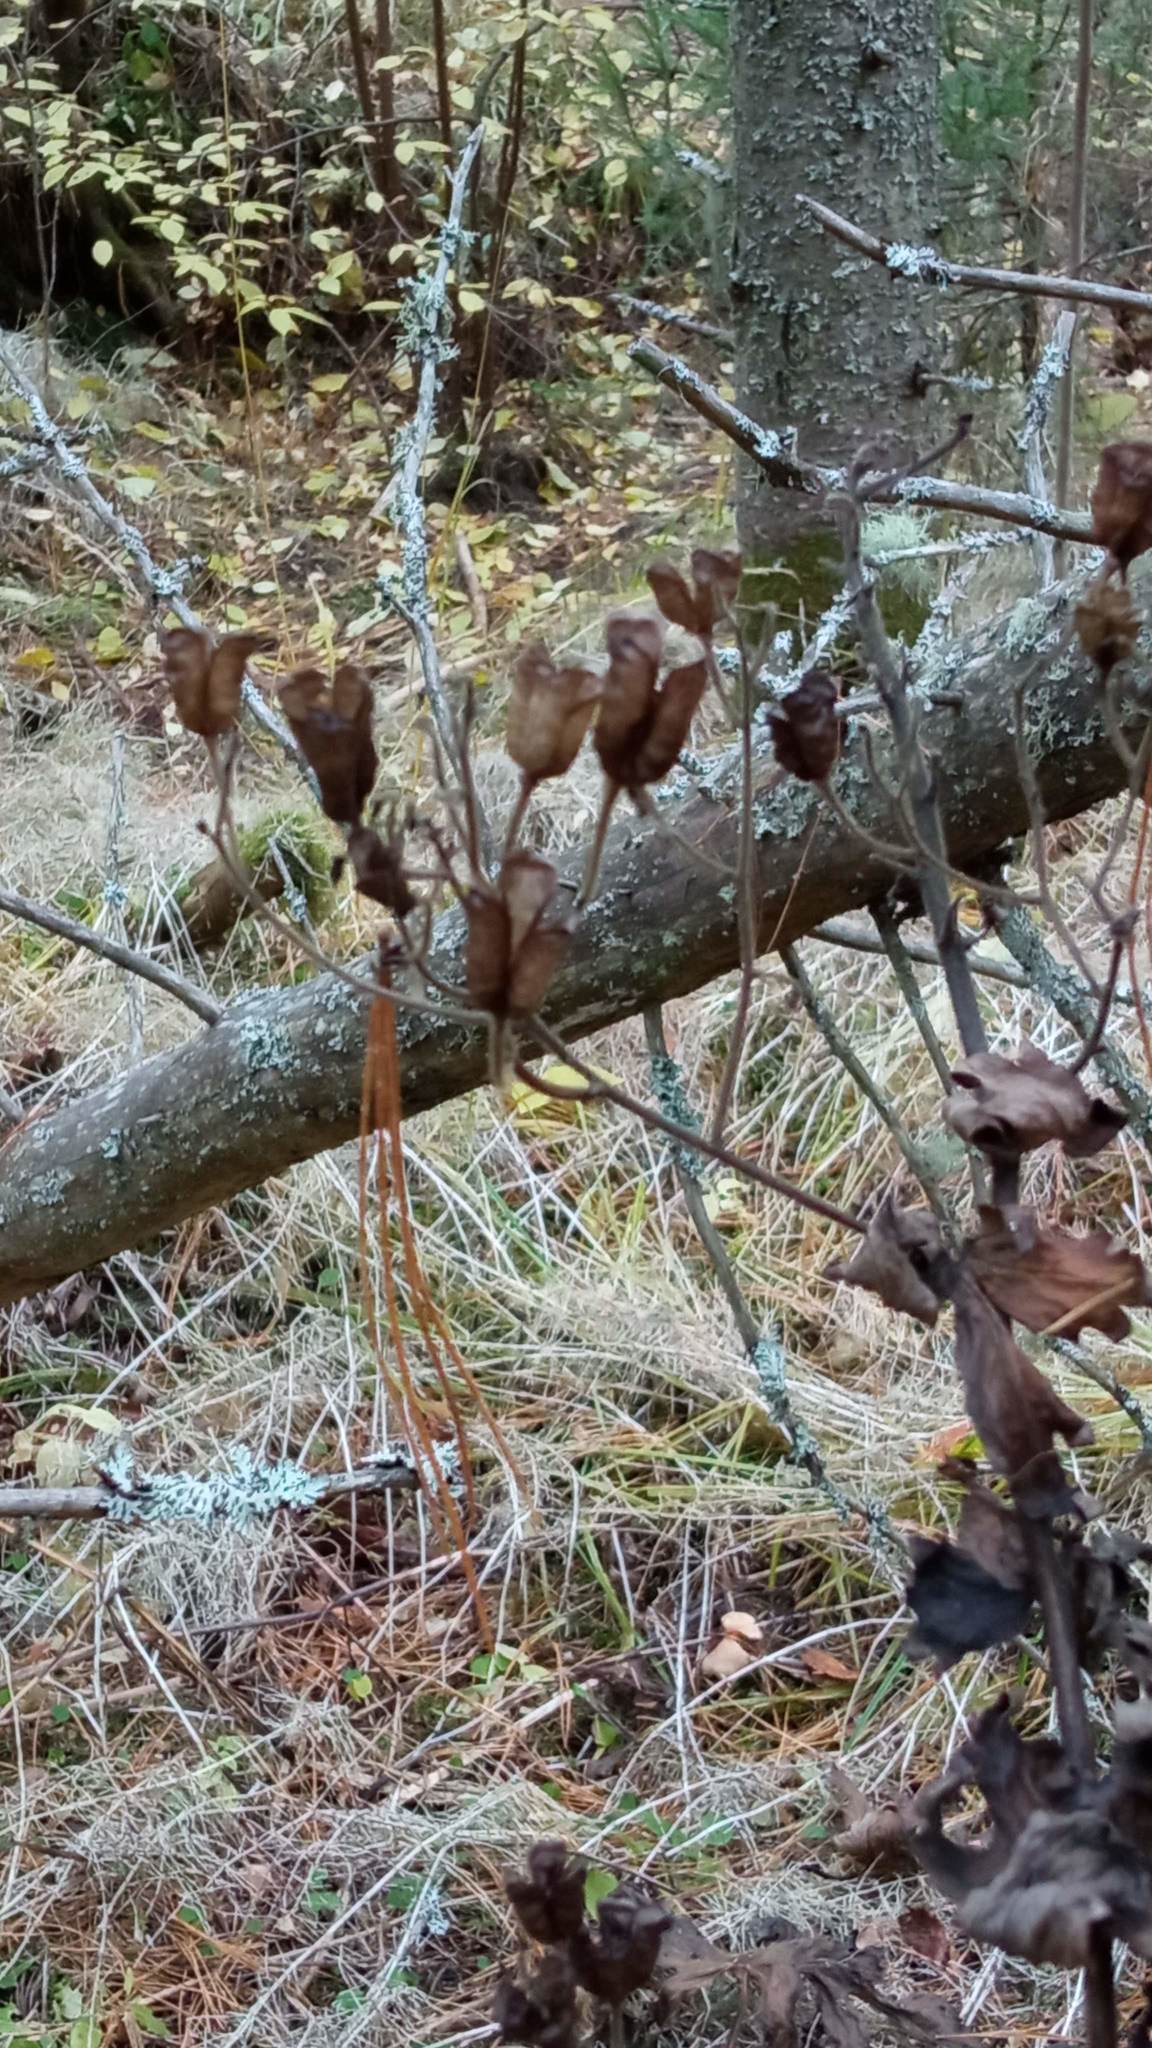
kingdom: Plantae
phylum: Tracheophyta
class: Magnoliopsida
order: Ranunculales
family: Ranunculaceae
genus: Aconitum
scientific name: Aconitum septentrionale
